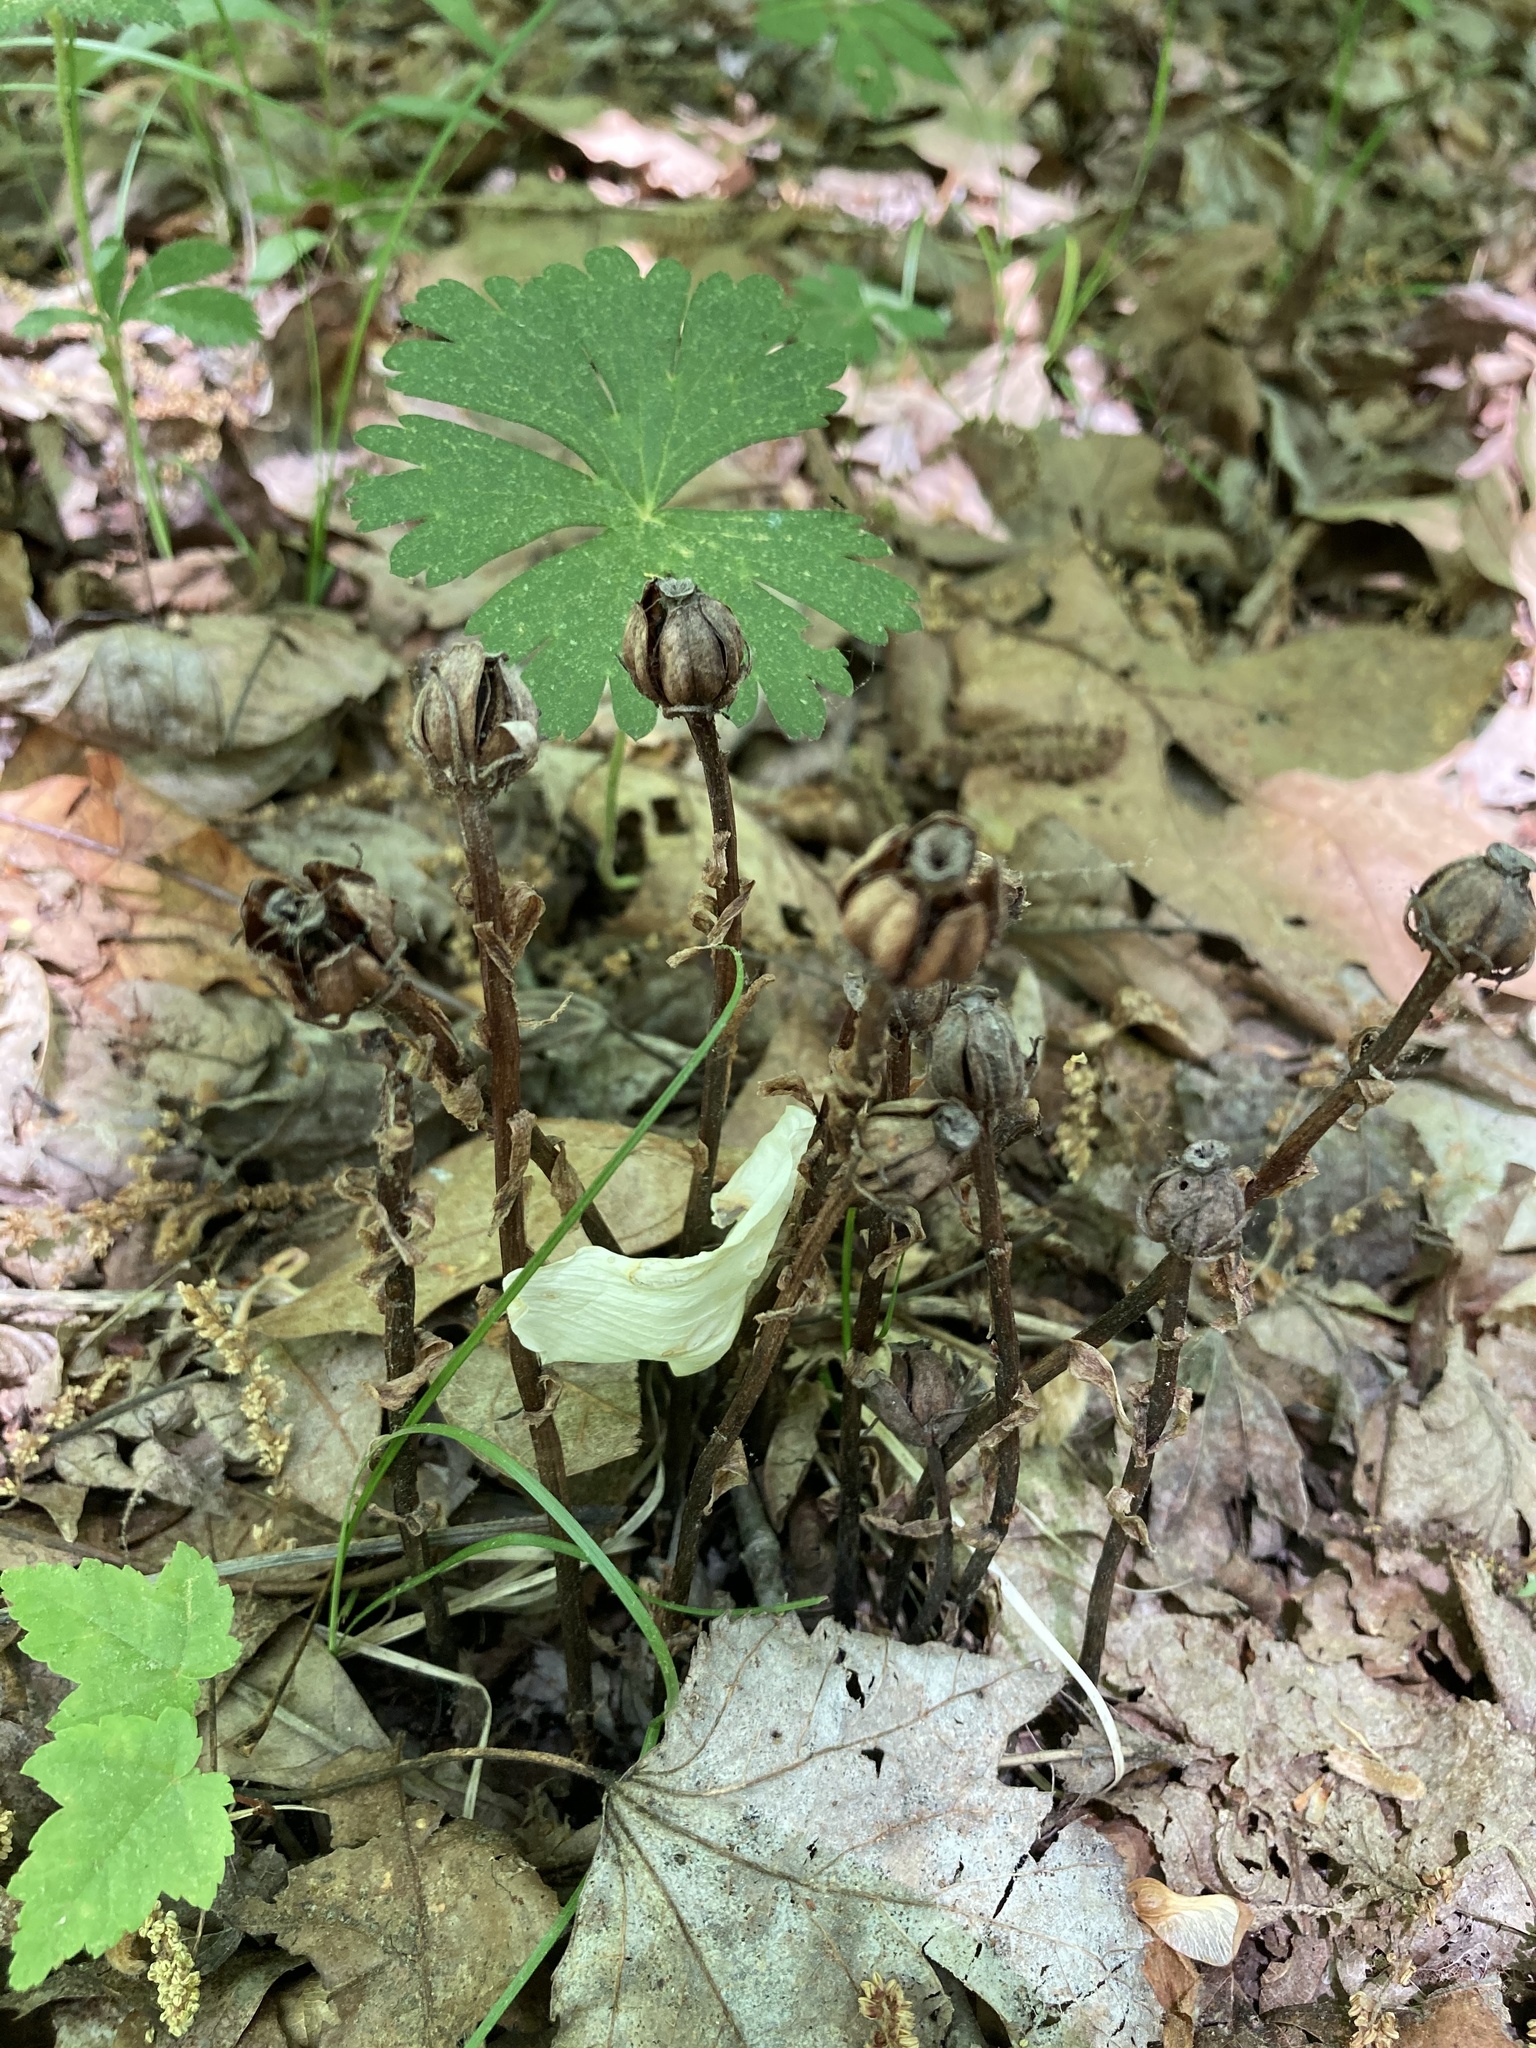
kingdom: Plantae
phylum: Tracheophyta
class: Magnoliopsida
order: Ericales
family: Ericaceae
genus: Monotropa
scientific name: Monotropa uniflora
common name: Convulsion root
